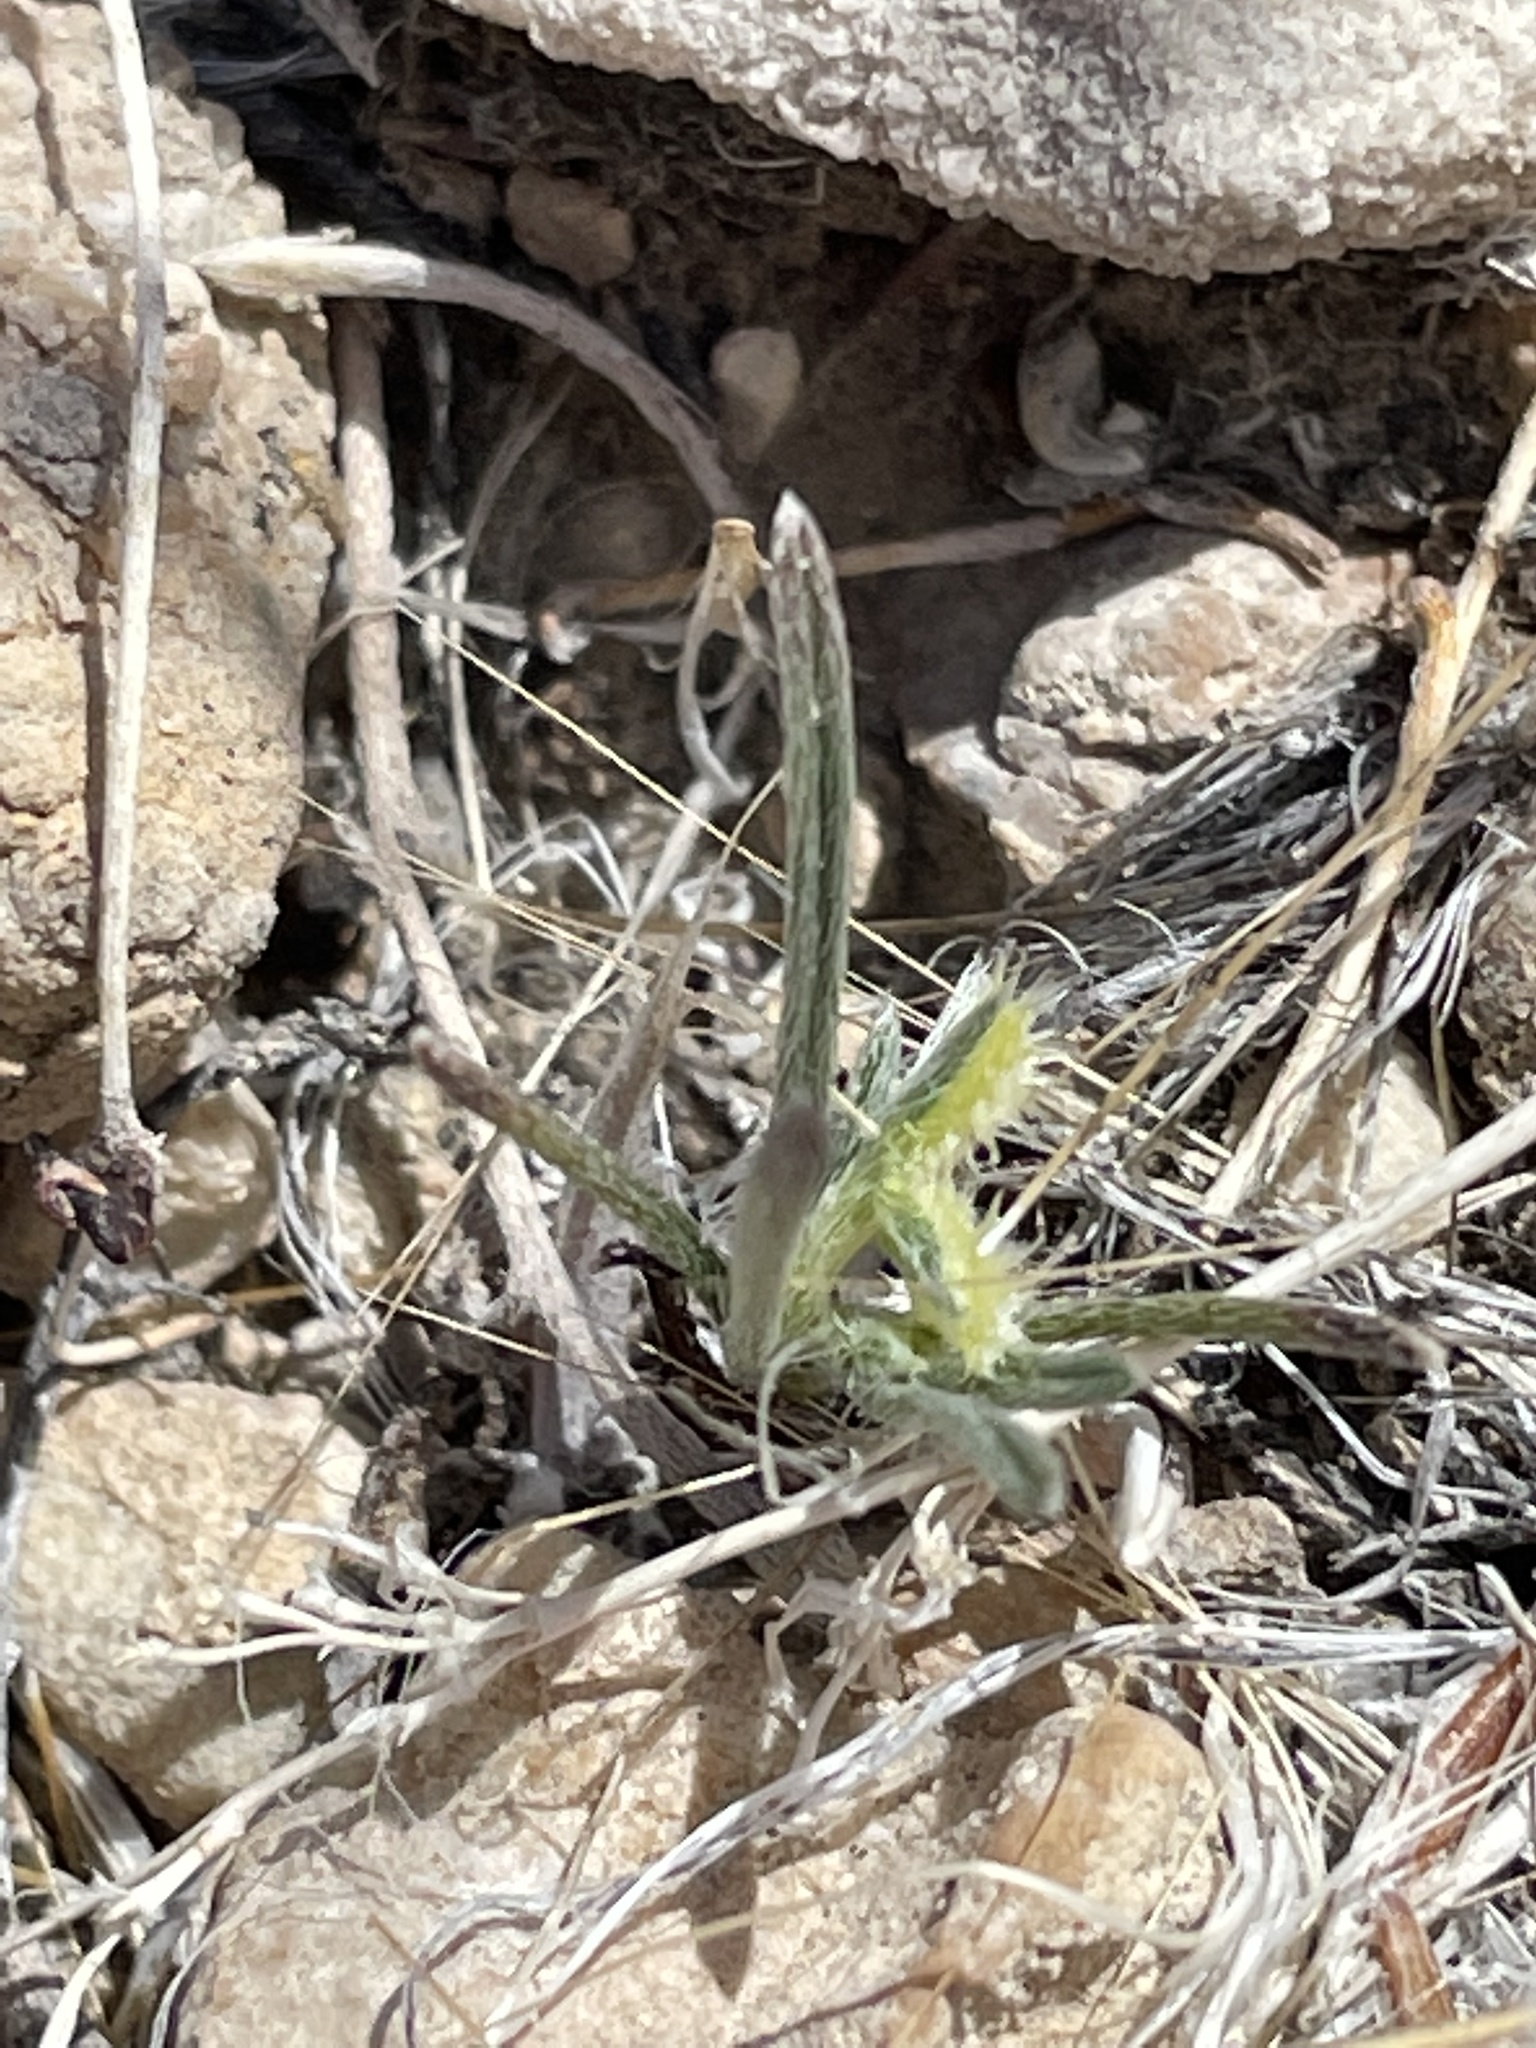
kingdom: Plantae
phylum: Tracheophyta
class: Magnoliopsida
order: Boraginales
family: Boraginaceae
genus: Pectocarya
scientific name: Pectocarya recurvata
